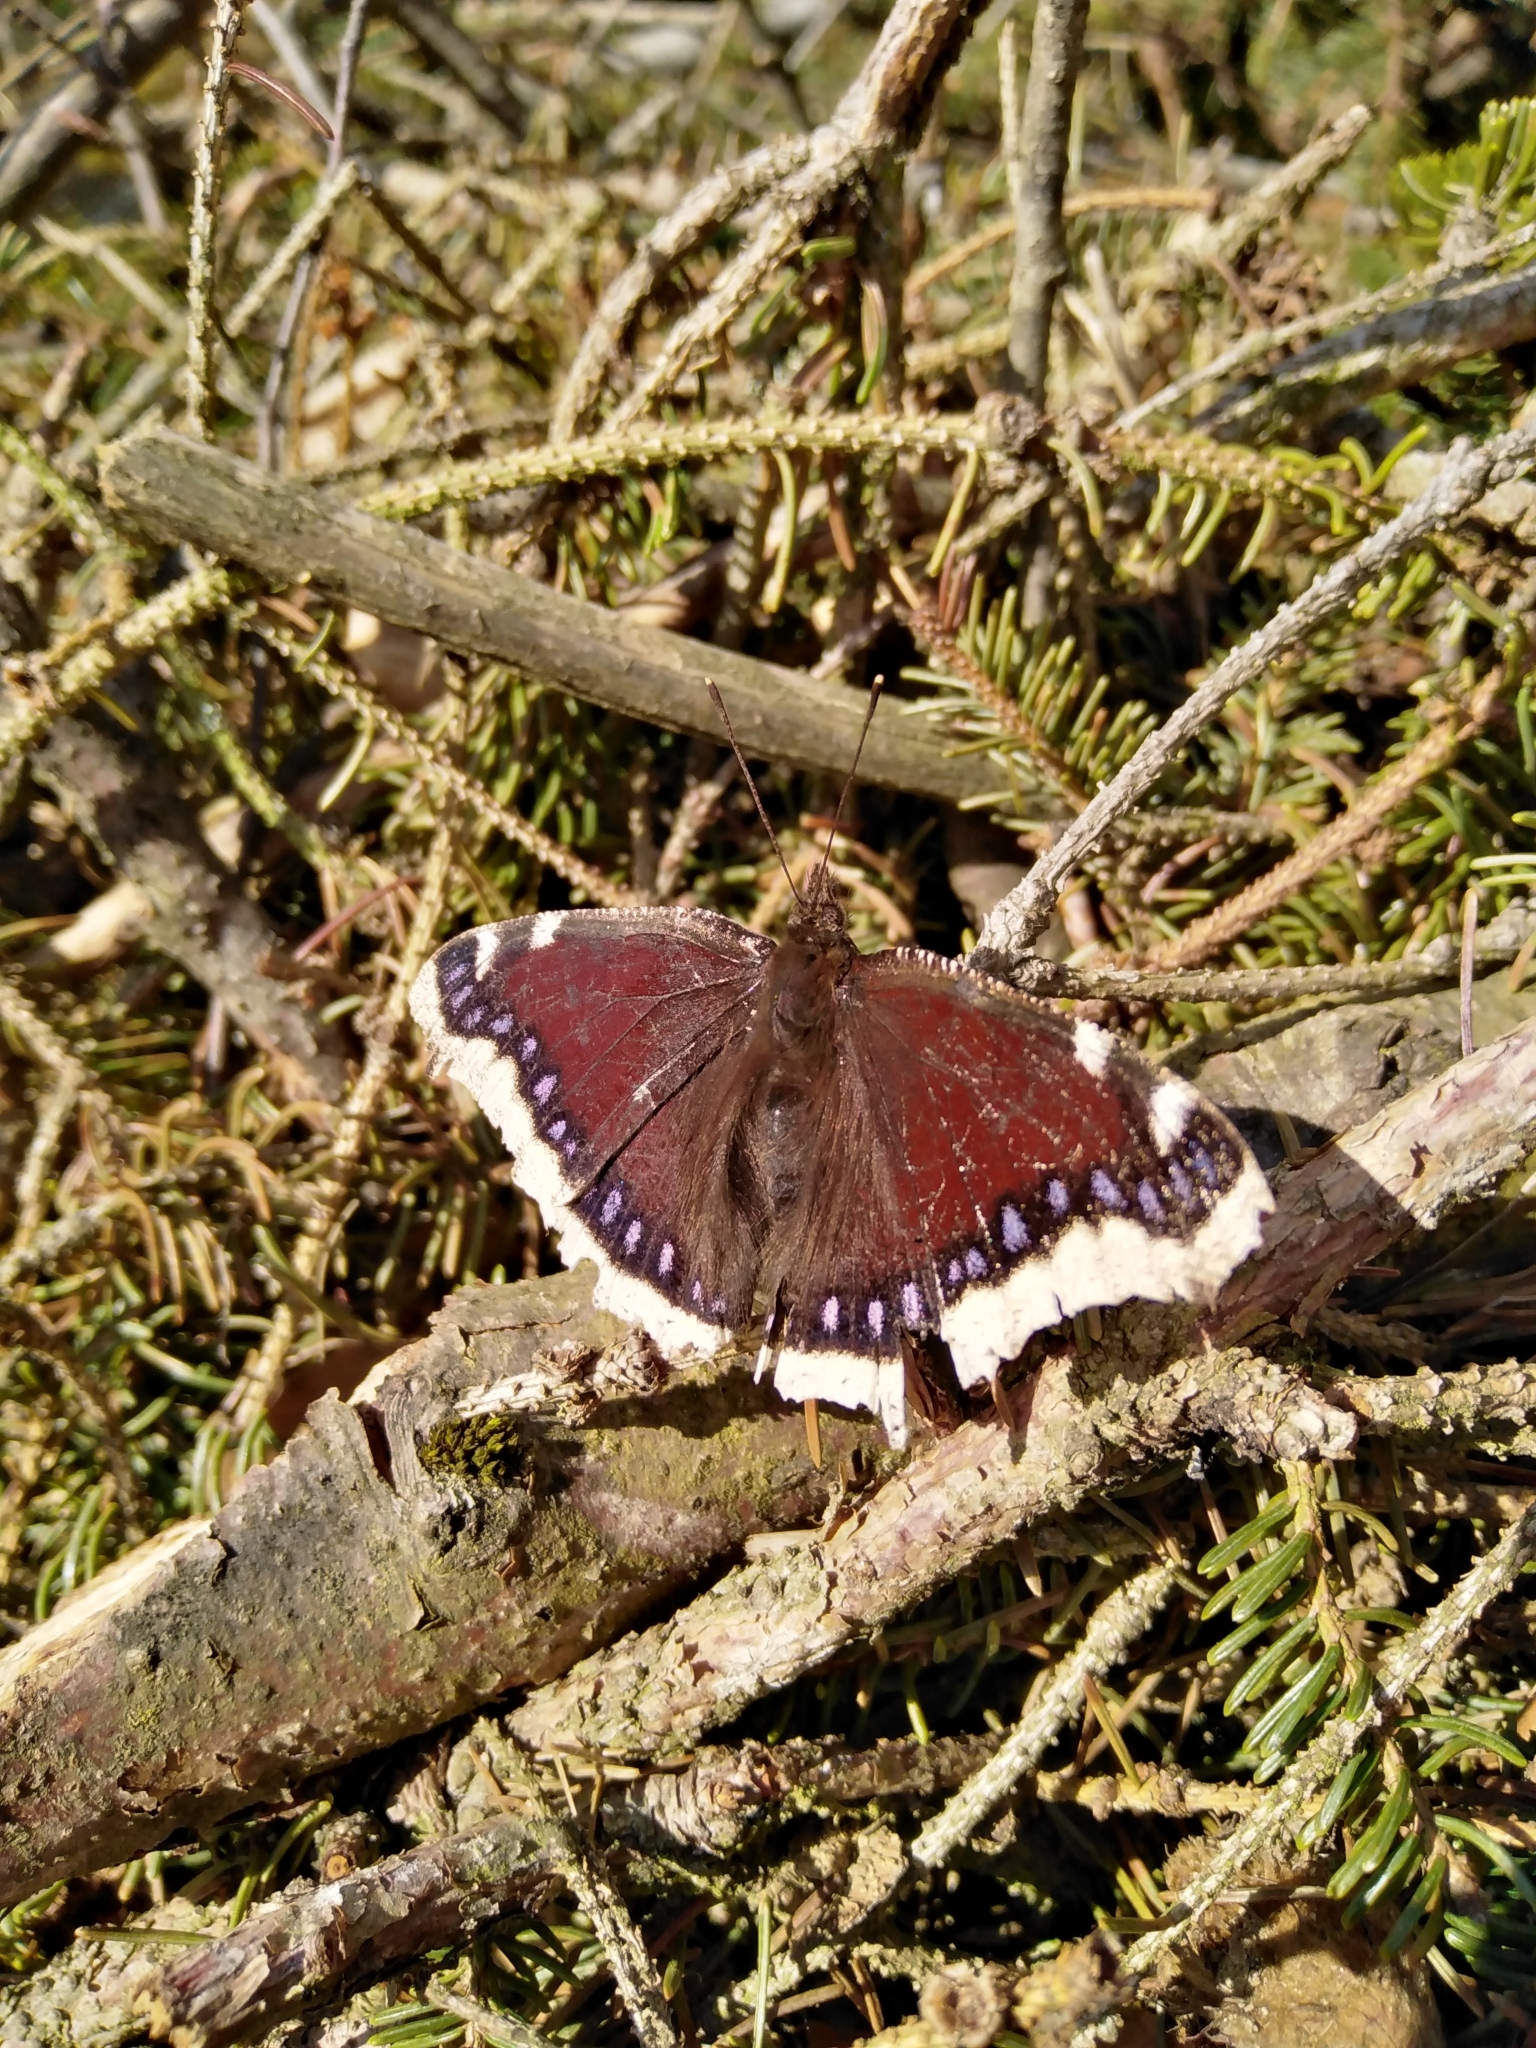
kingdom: Animalia
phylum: Arthropoda
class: Insecta
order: Lepidoptera
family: Nymphalidae
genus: Nymphalis
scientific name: Nymphalis antiopa
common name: Camberwell beauty
